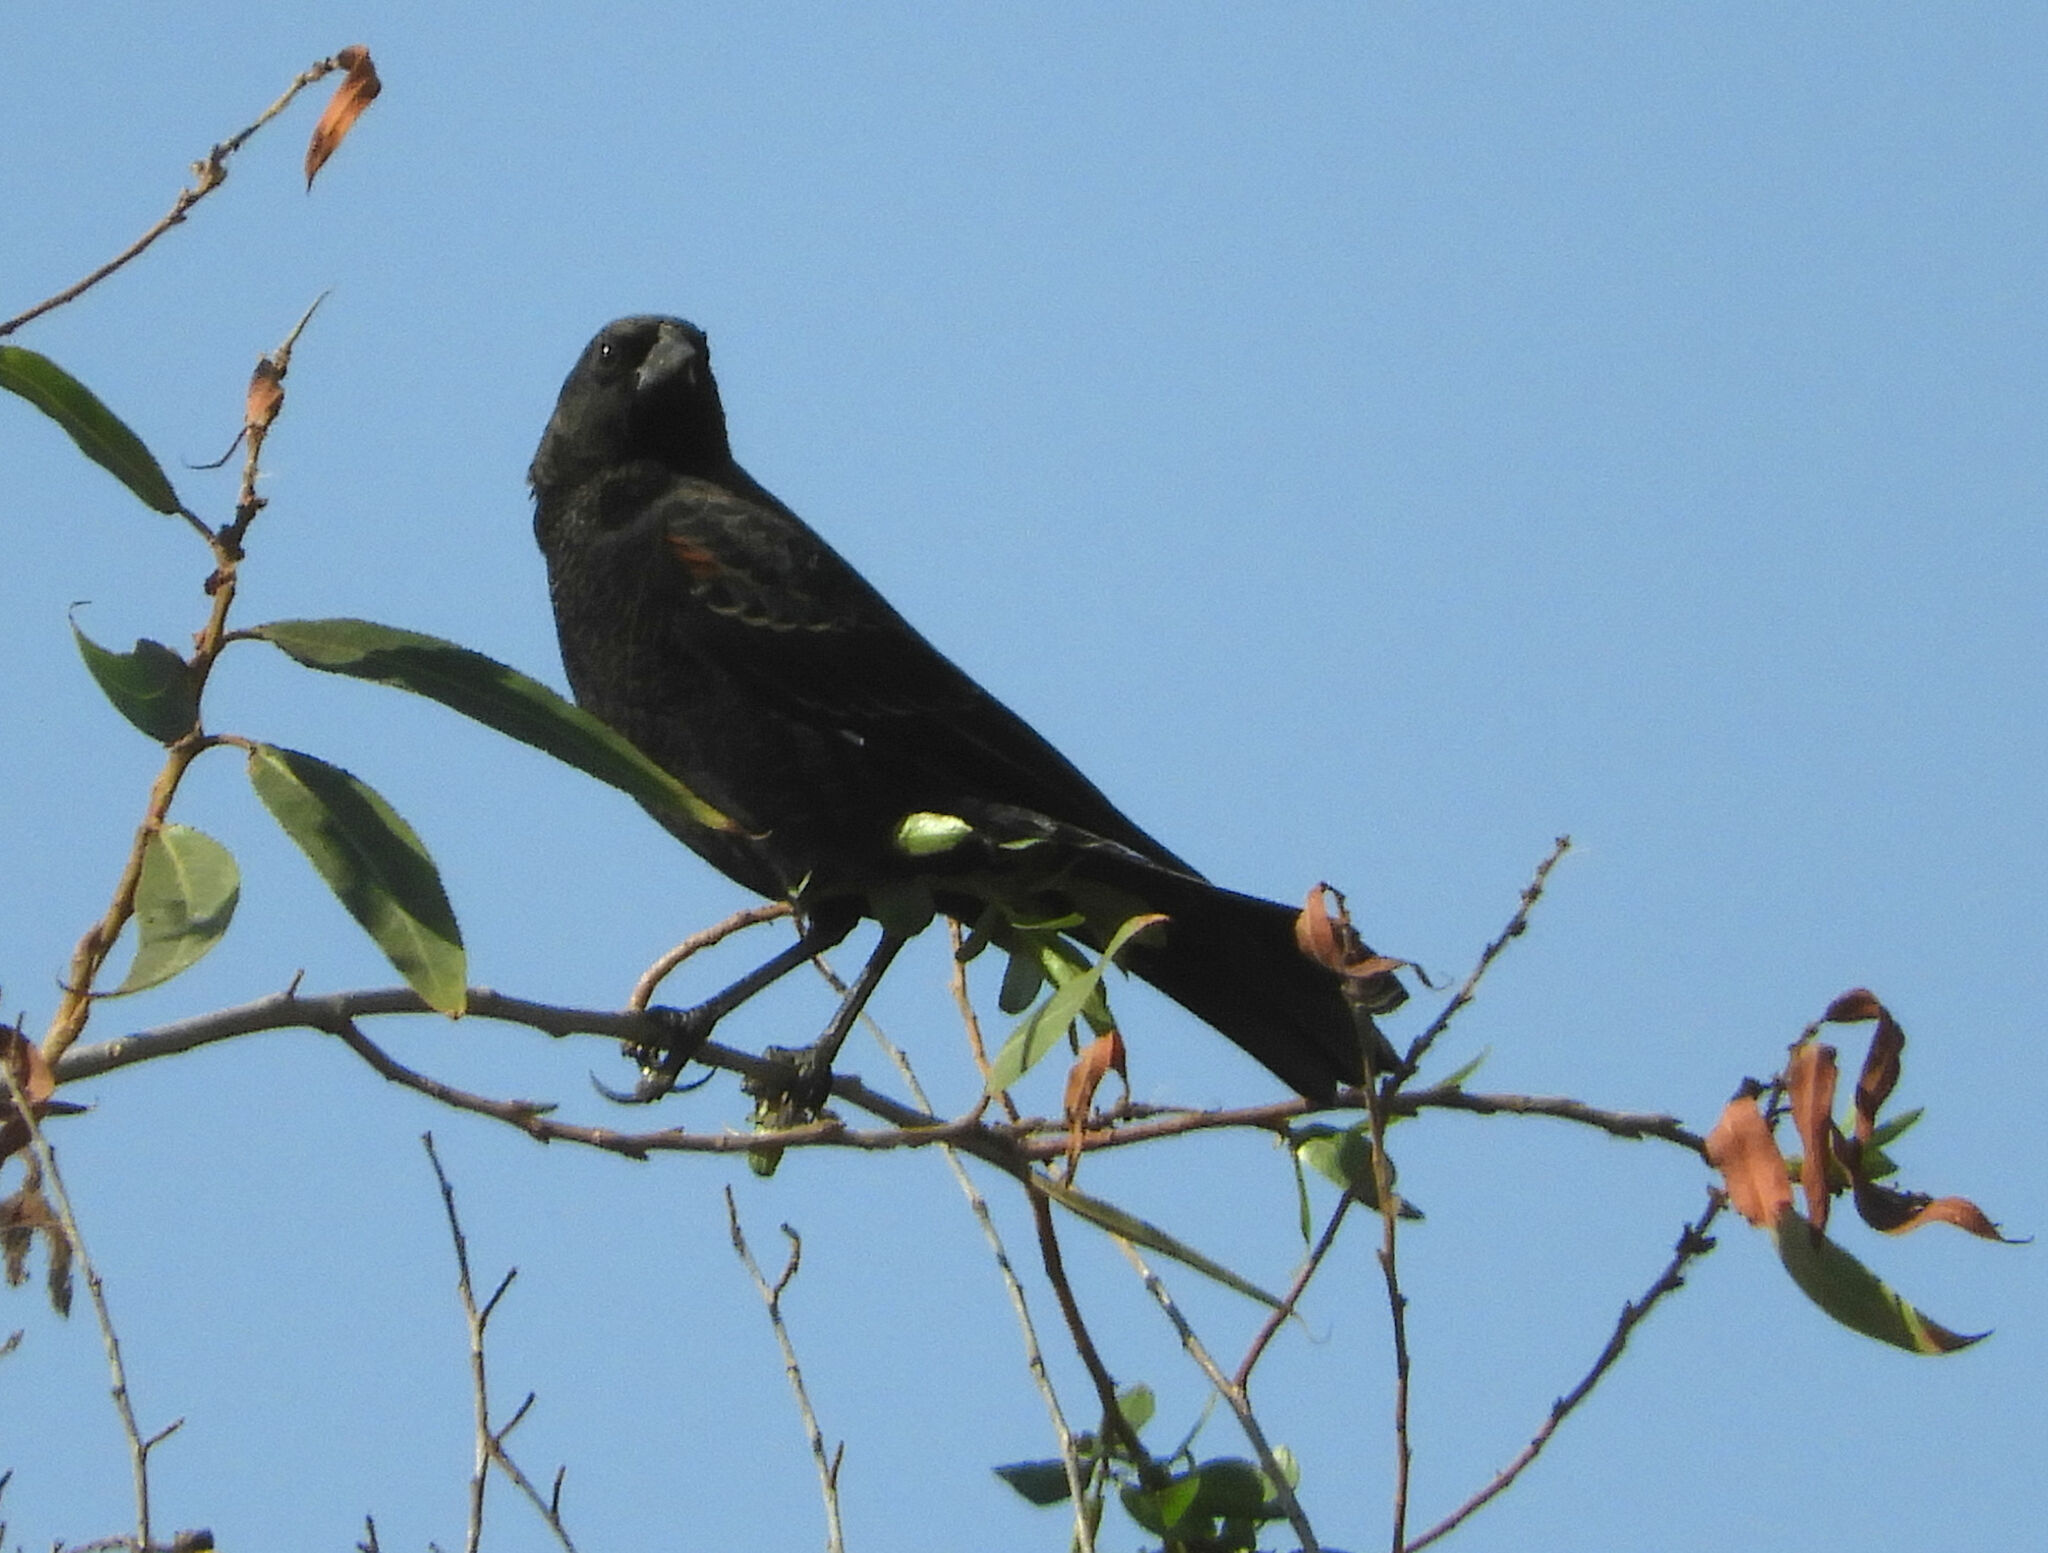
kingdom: Animalia
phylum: Chordata
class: Aves
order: Passeriformes
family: Icteridae
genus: Agelaius
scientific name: Agelaius phoeniceus
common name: Red-winged blackbird
